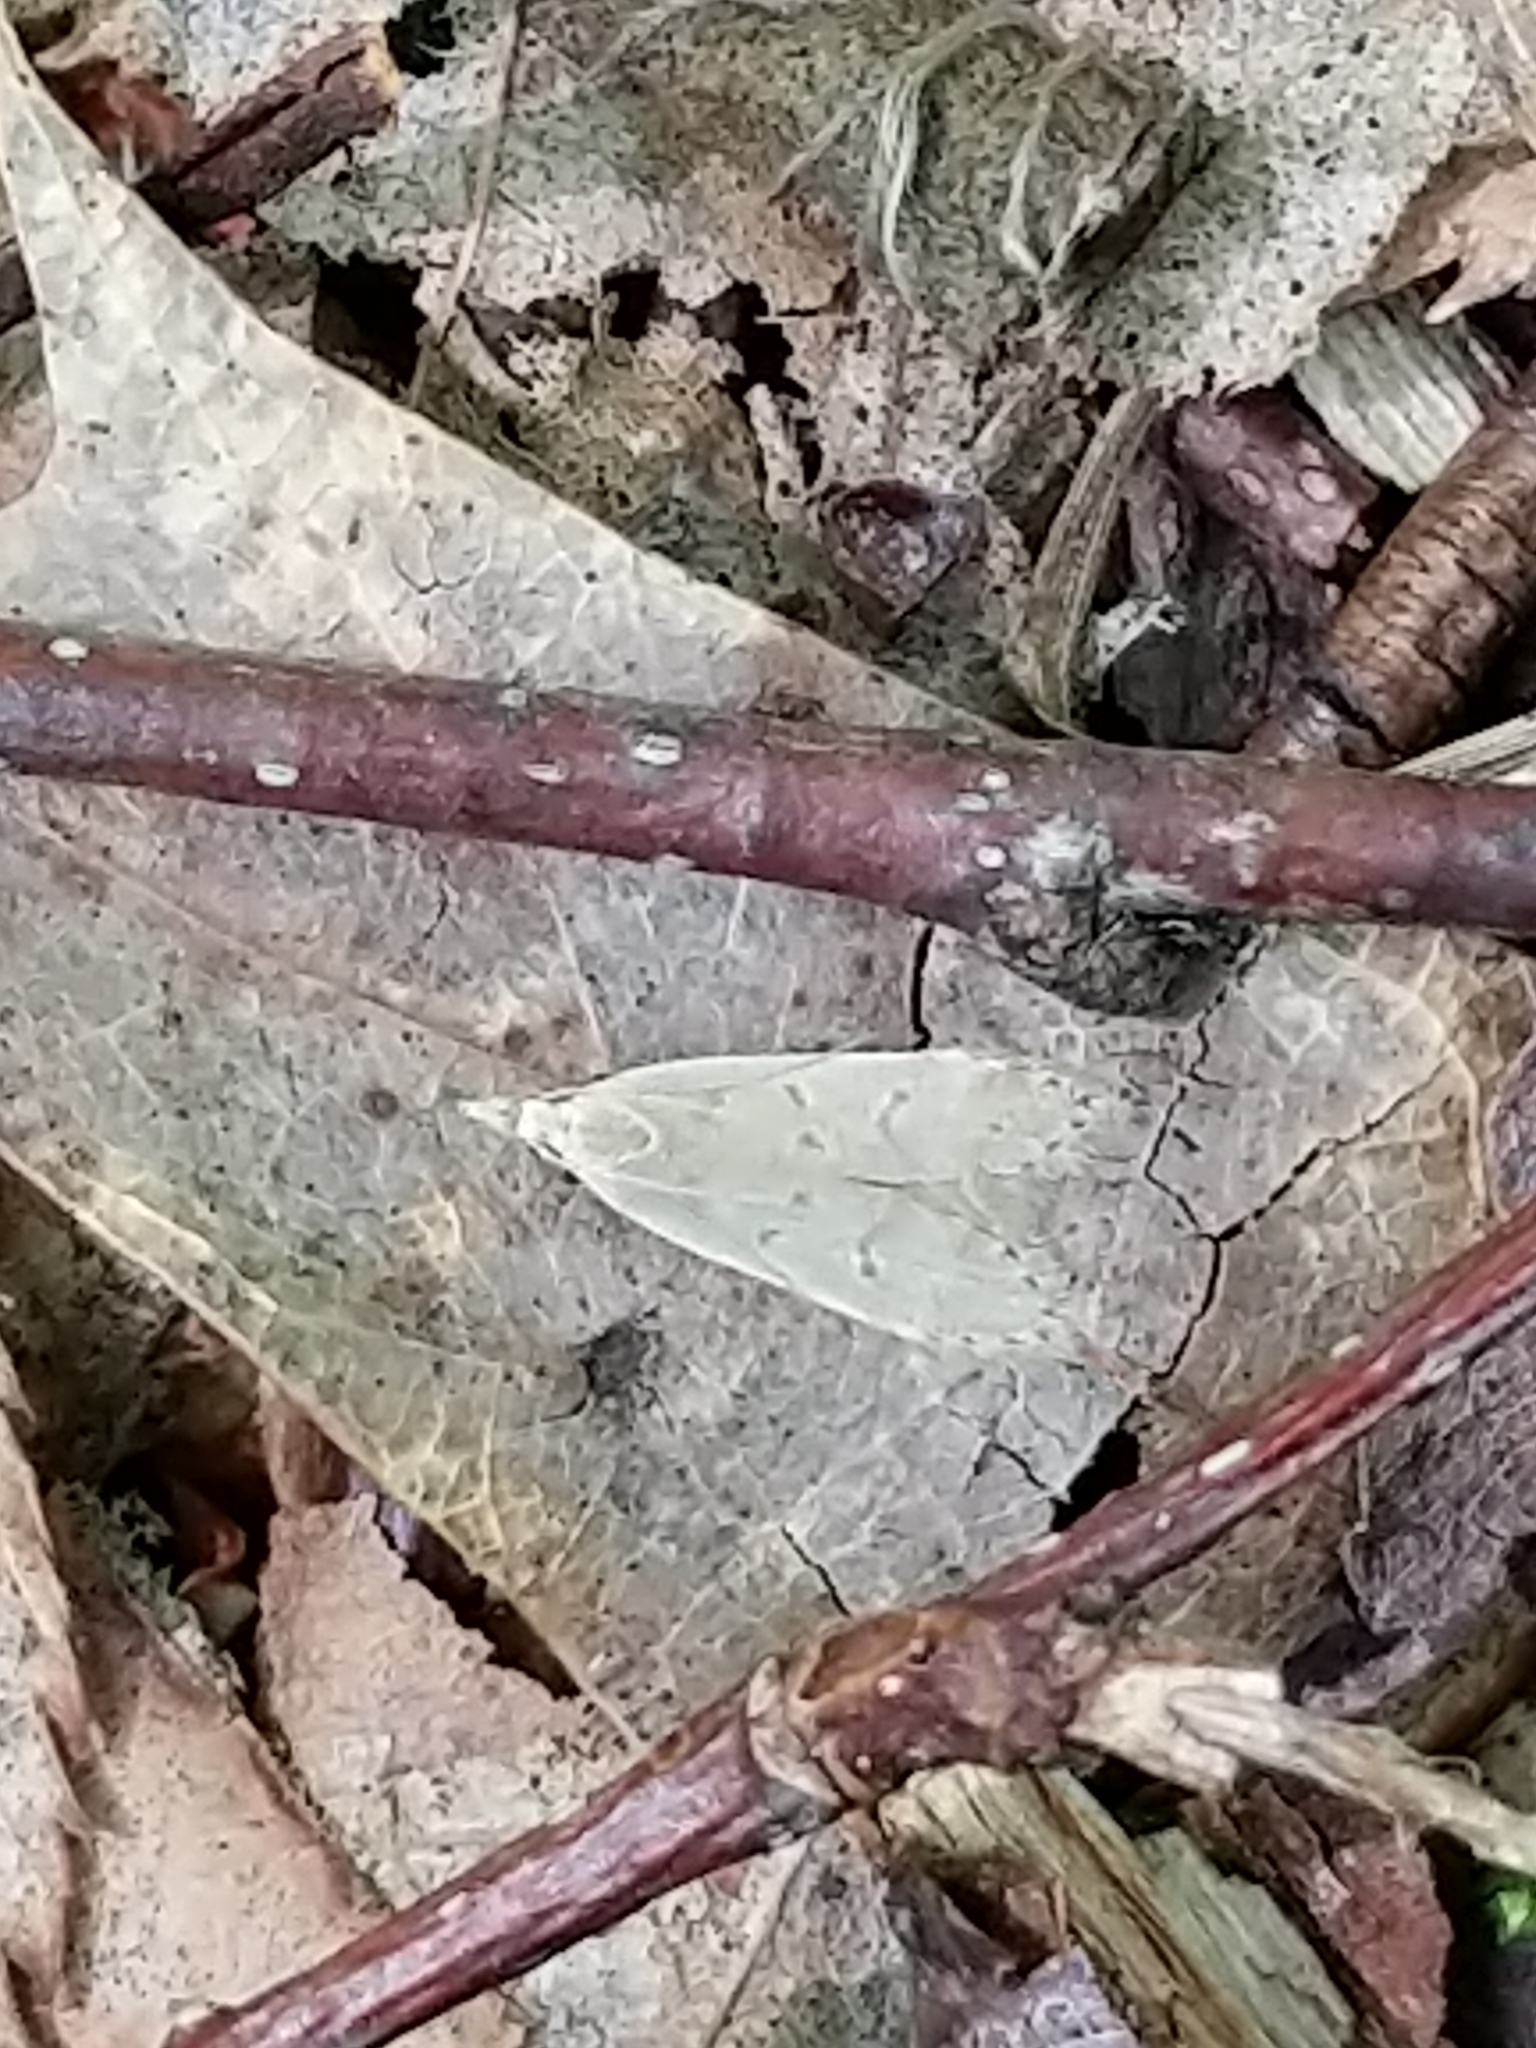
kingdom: Animalia
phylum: Arthropoda
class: Insecta
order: Lepidoptera
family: Gelechiidae
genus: Dichomeris
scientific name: Dichomeris punctidiscellus
